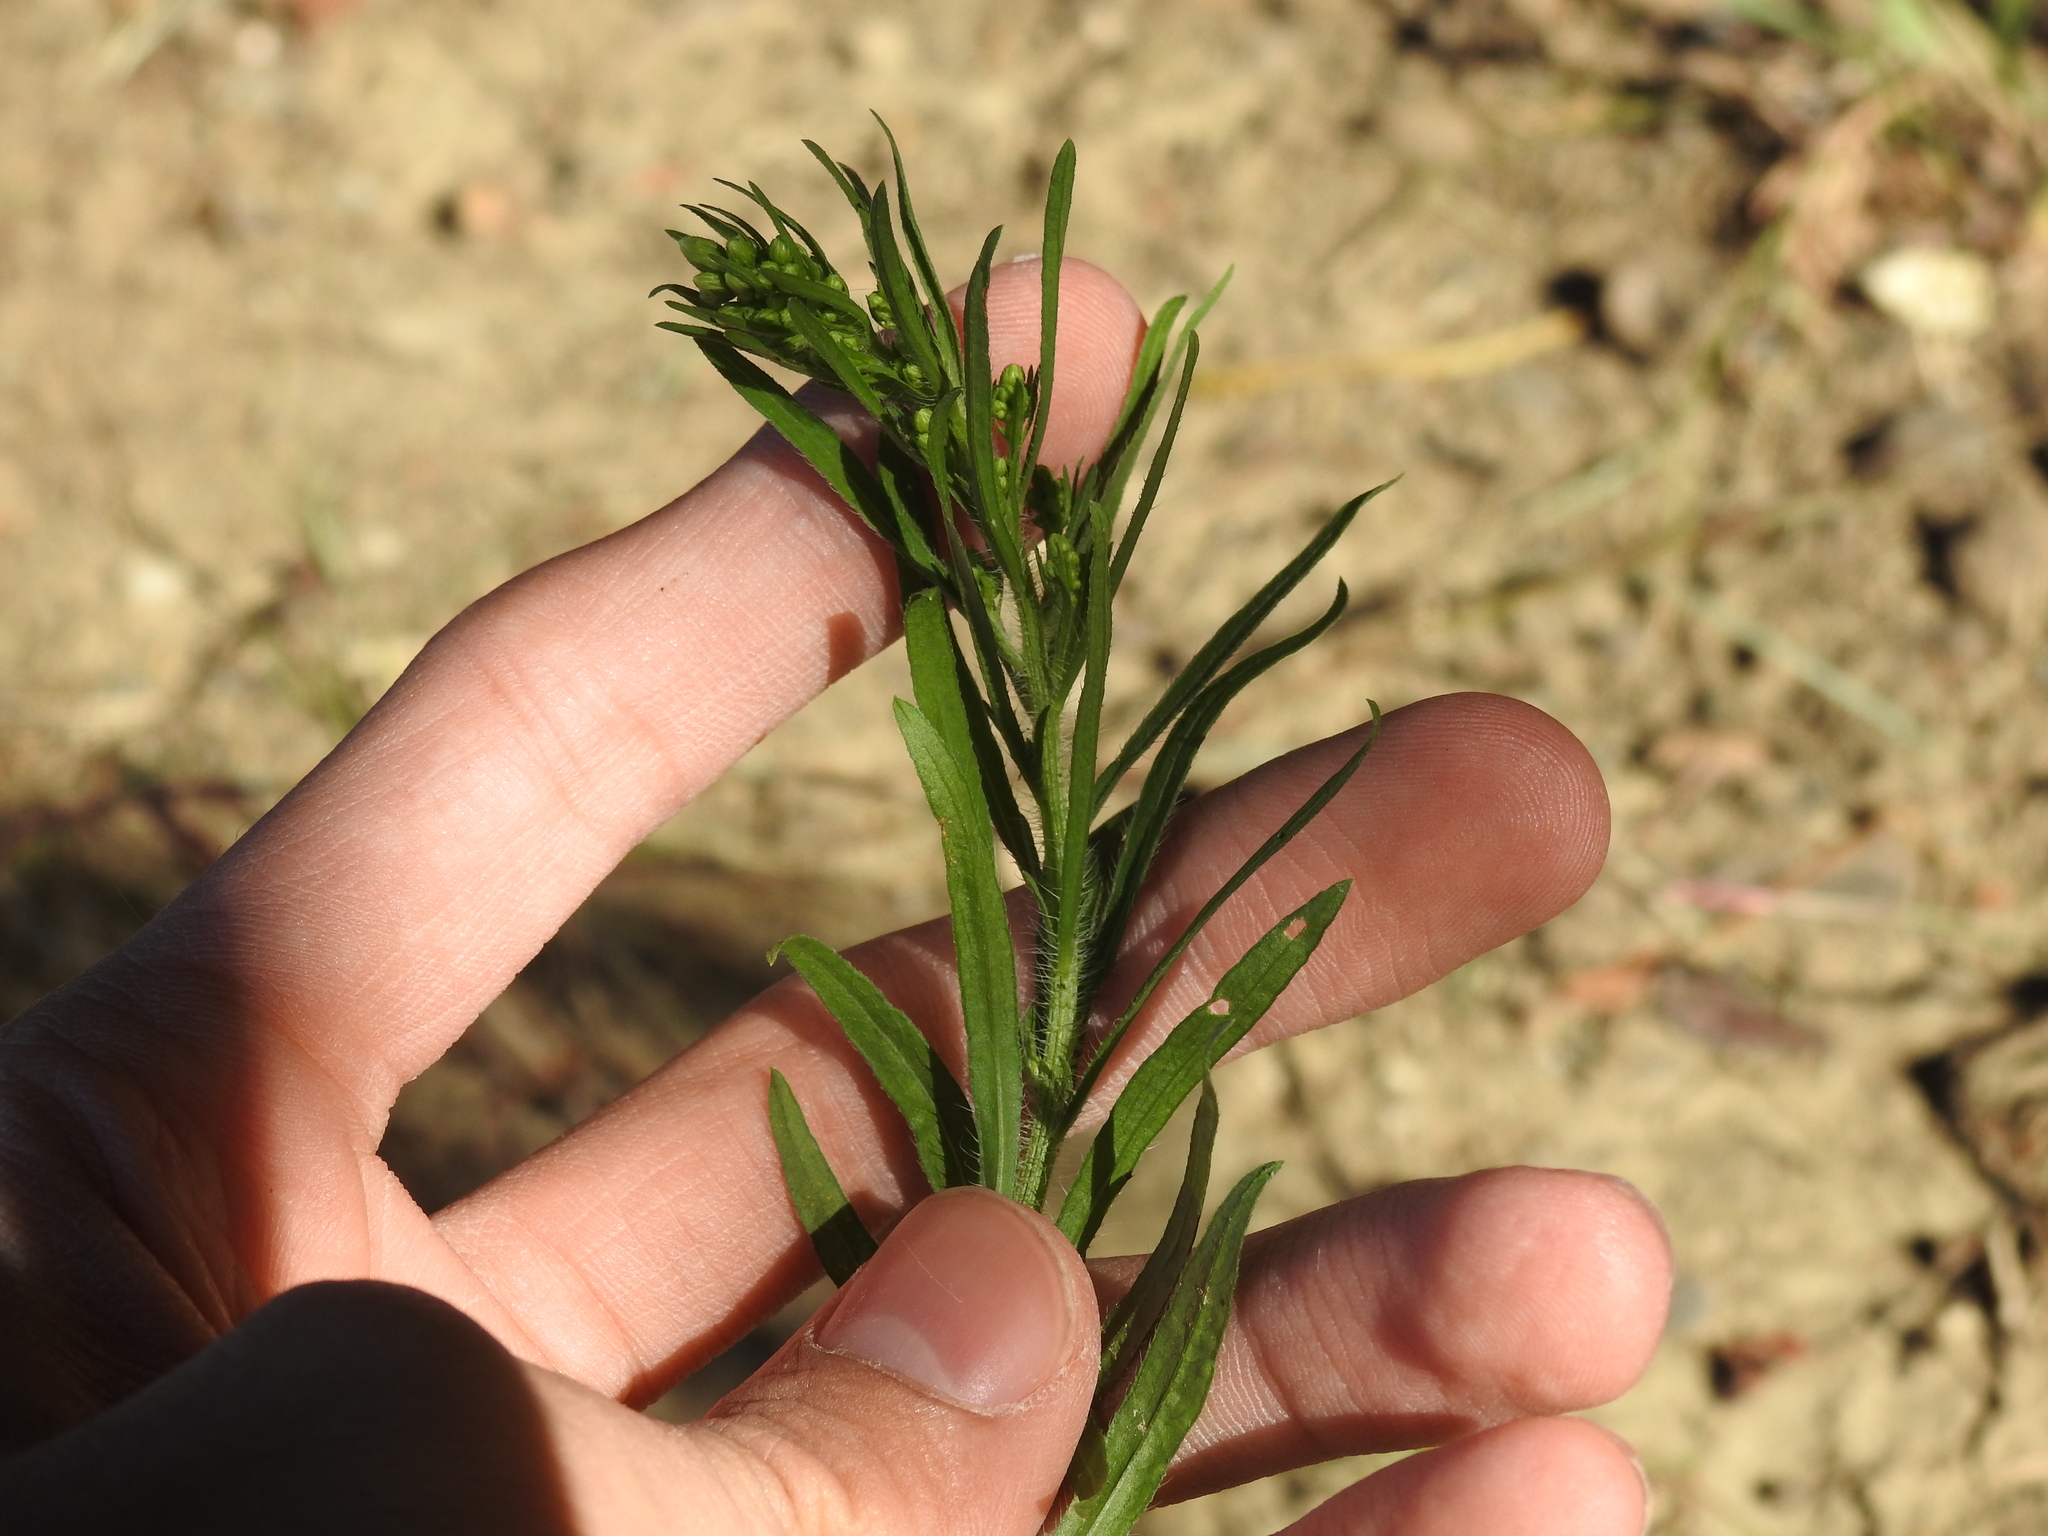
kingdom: Plantae
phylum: Tracheophyta
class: Magnoliopsida
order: Asterales
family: Asteraceae
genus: Erigeron
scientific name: Erigeron canadensis
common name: Canadian fleabane
